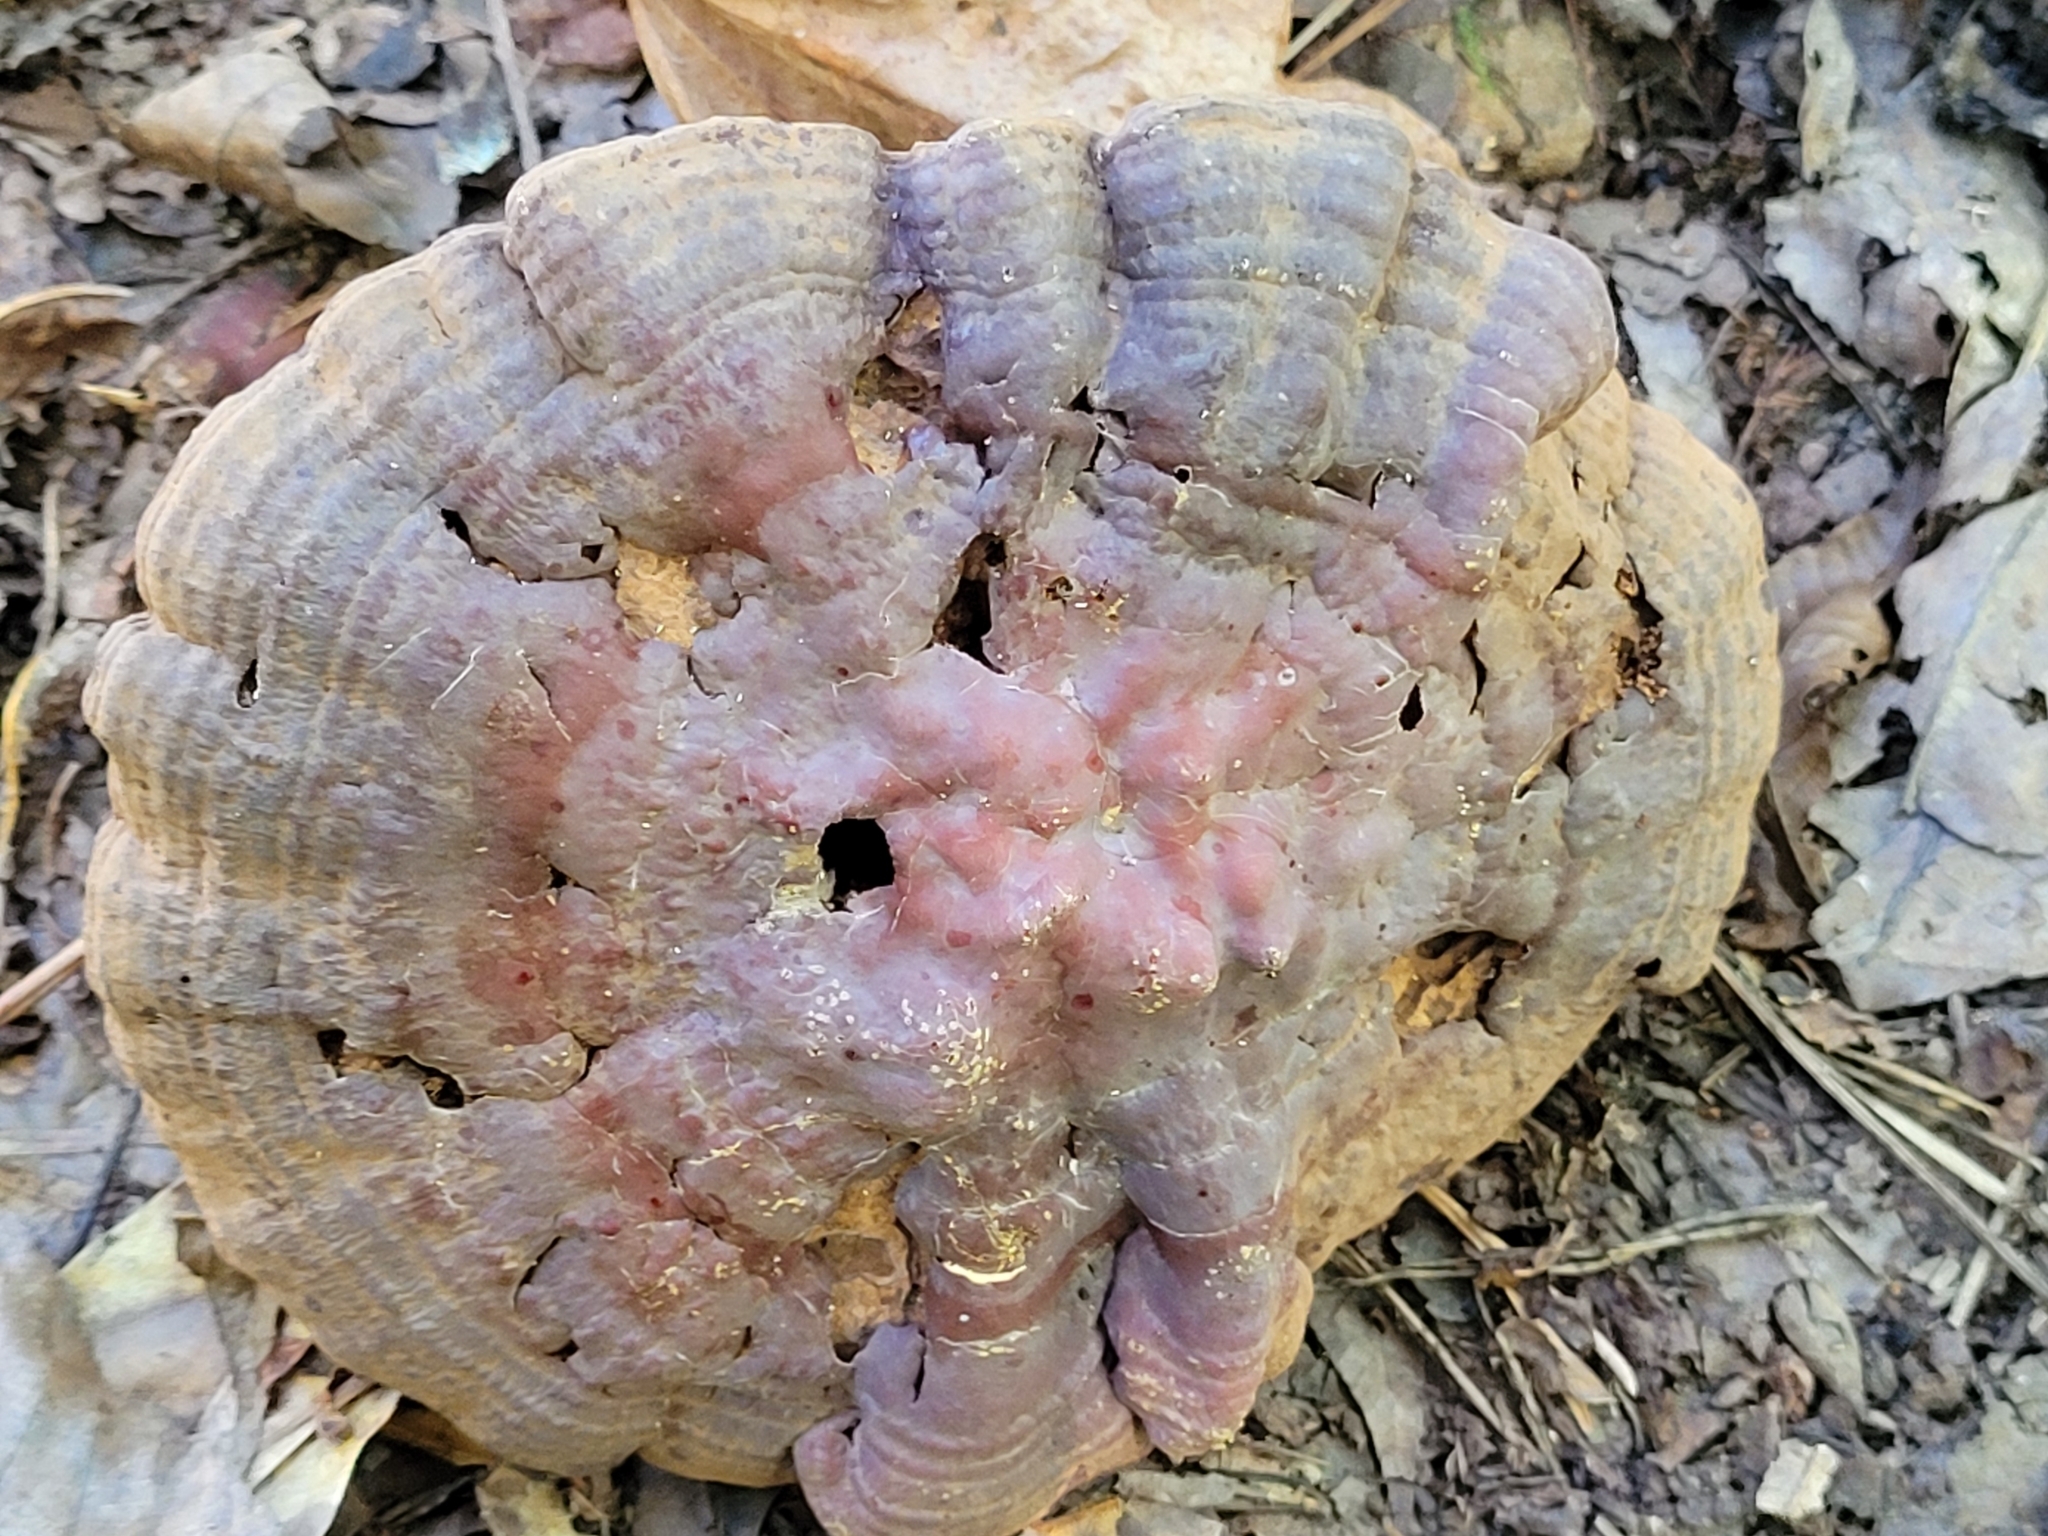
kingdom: Fungi
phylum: Basidiomycota
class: Agaricomycetes
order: Polyporales
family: Polyporaceae
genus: Ganoderma
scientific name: Ganoderma curtisii
